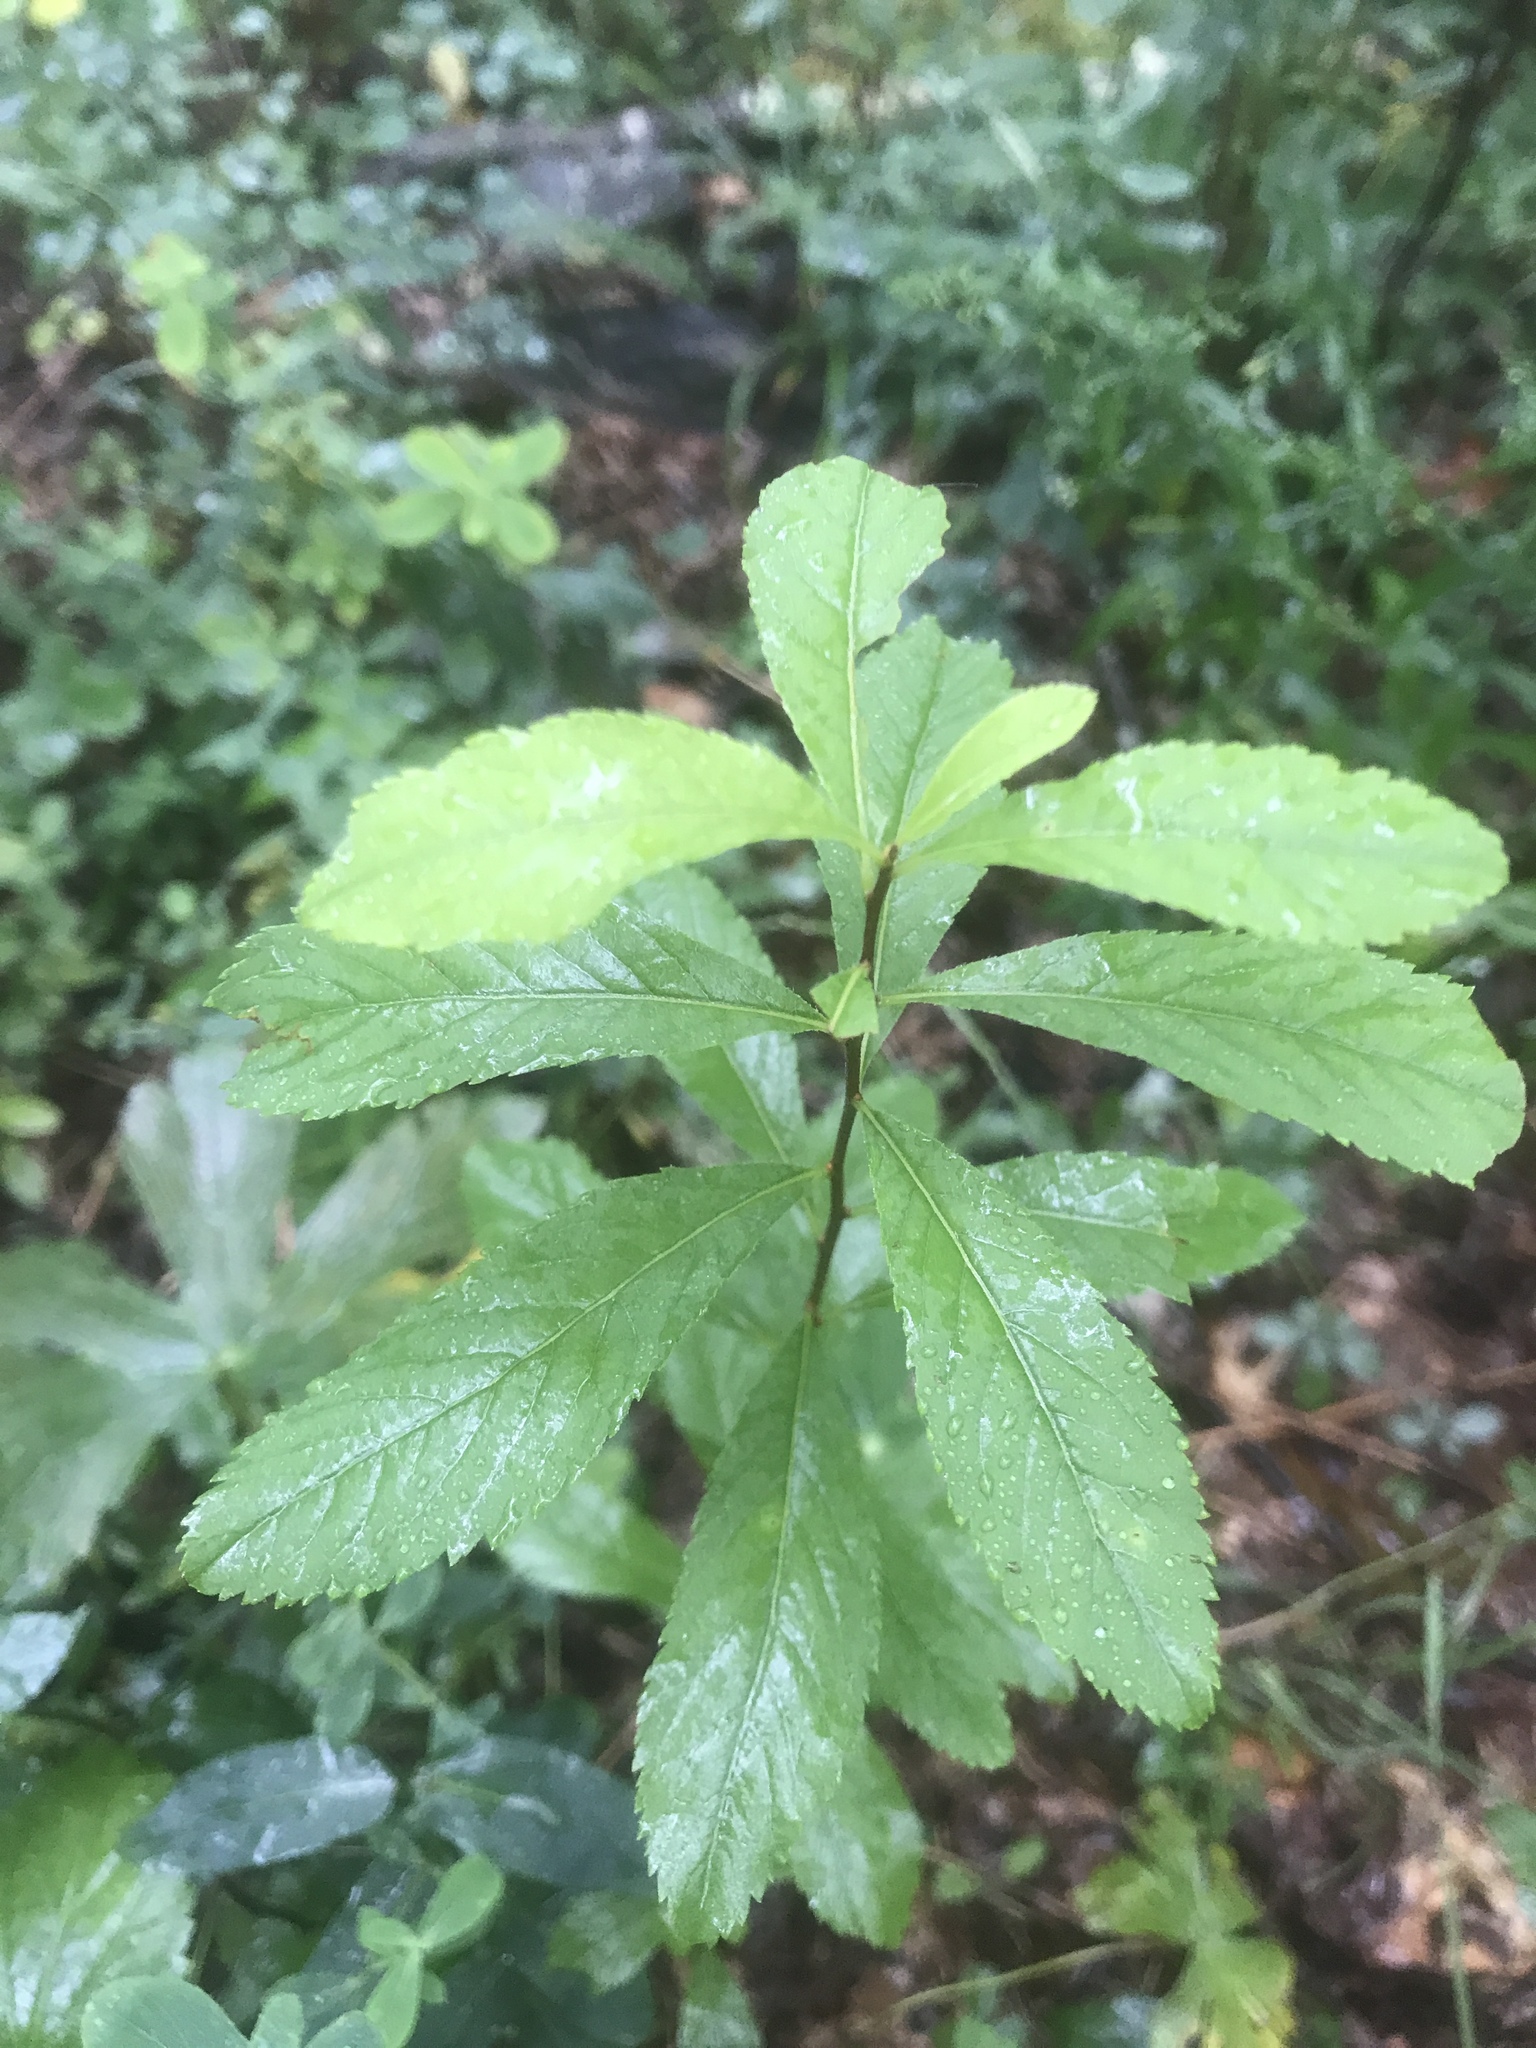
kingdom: Plantae
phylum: Tracheophyta
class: Magnoliopsida
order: Rosales
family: Rosaceae
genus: Spiraea
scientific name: Spiraea alba
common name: Pale bridewort
